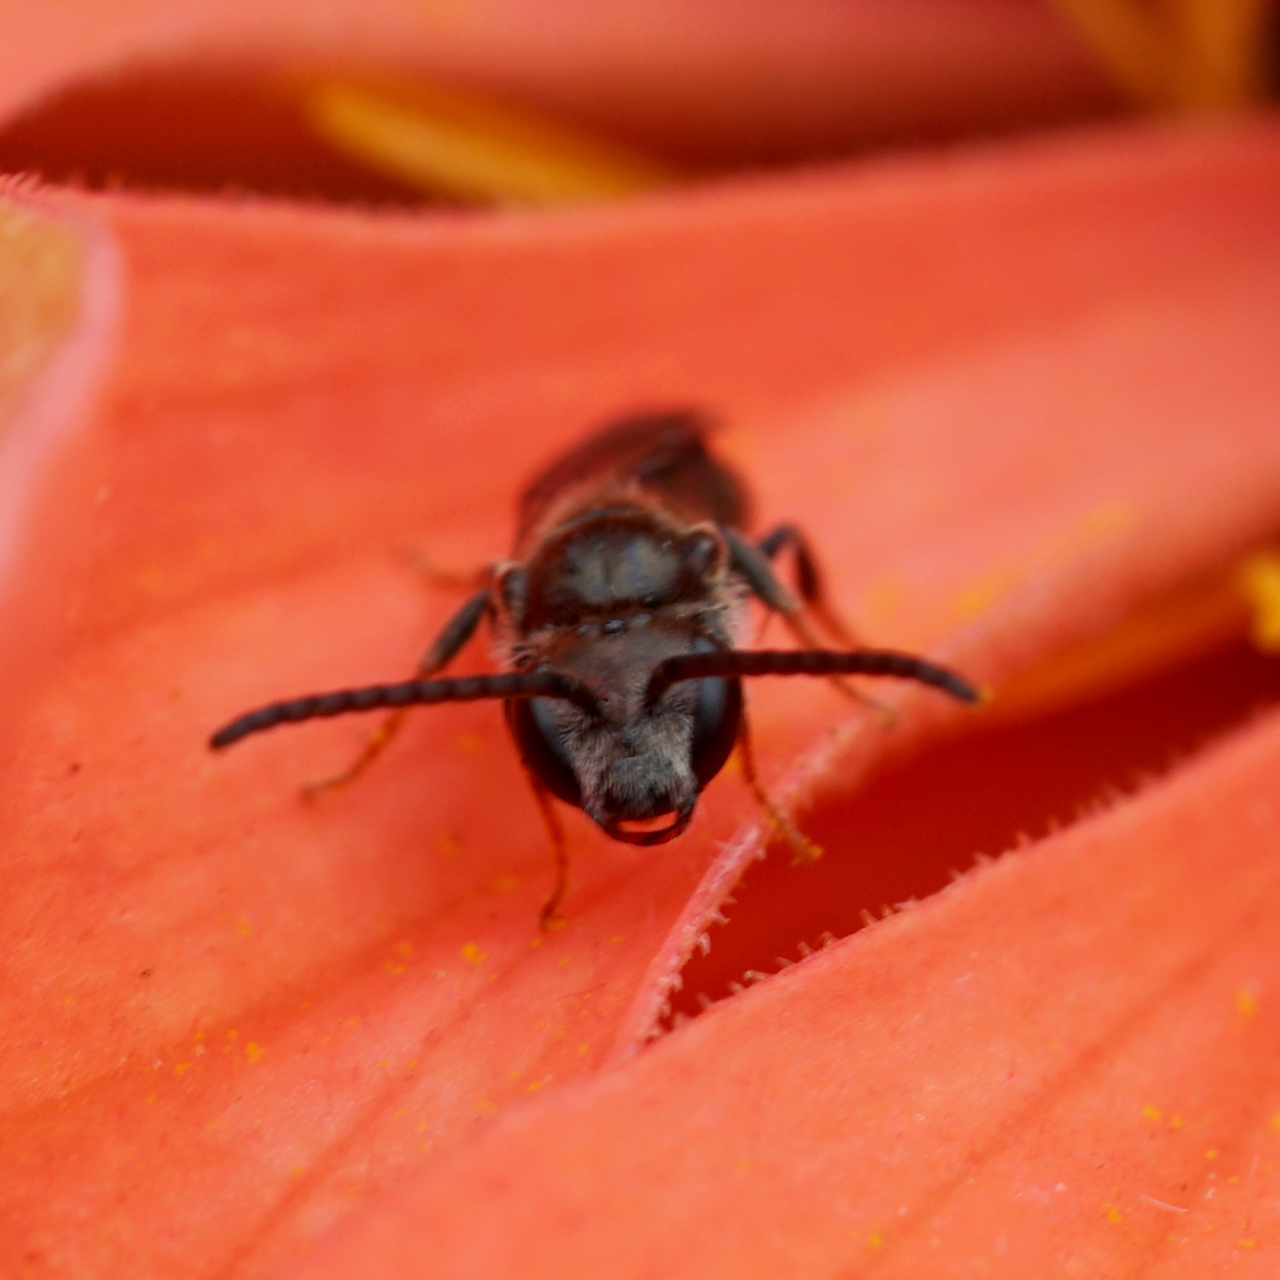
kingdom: Animalia
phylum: Arthropoda
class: Insecta
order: Hymenoptera
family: Halictidae
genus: Dialictus
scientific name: Dialictus
